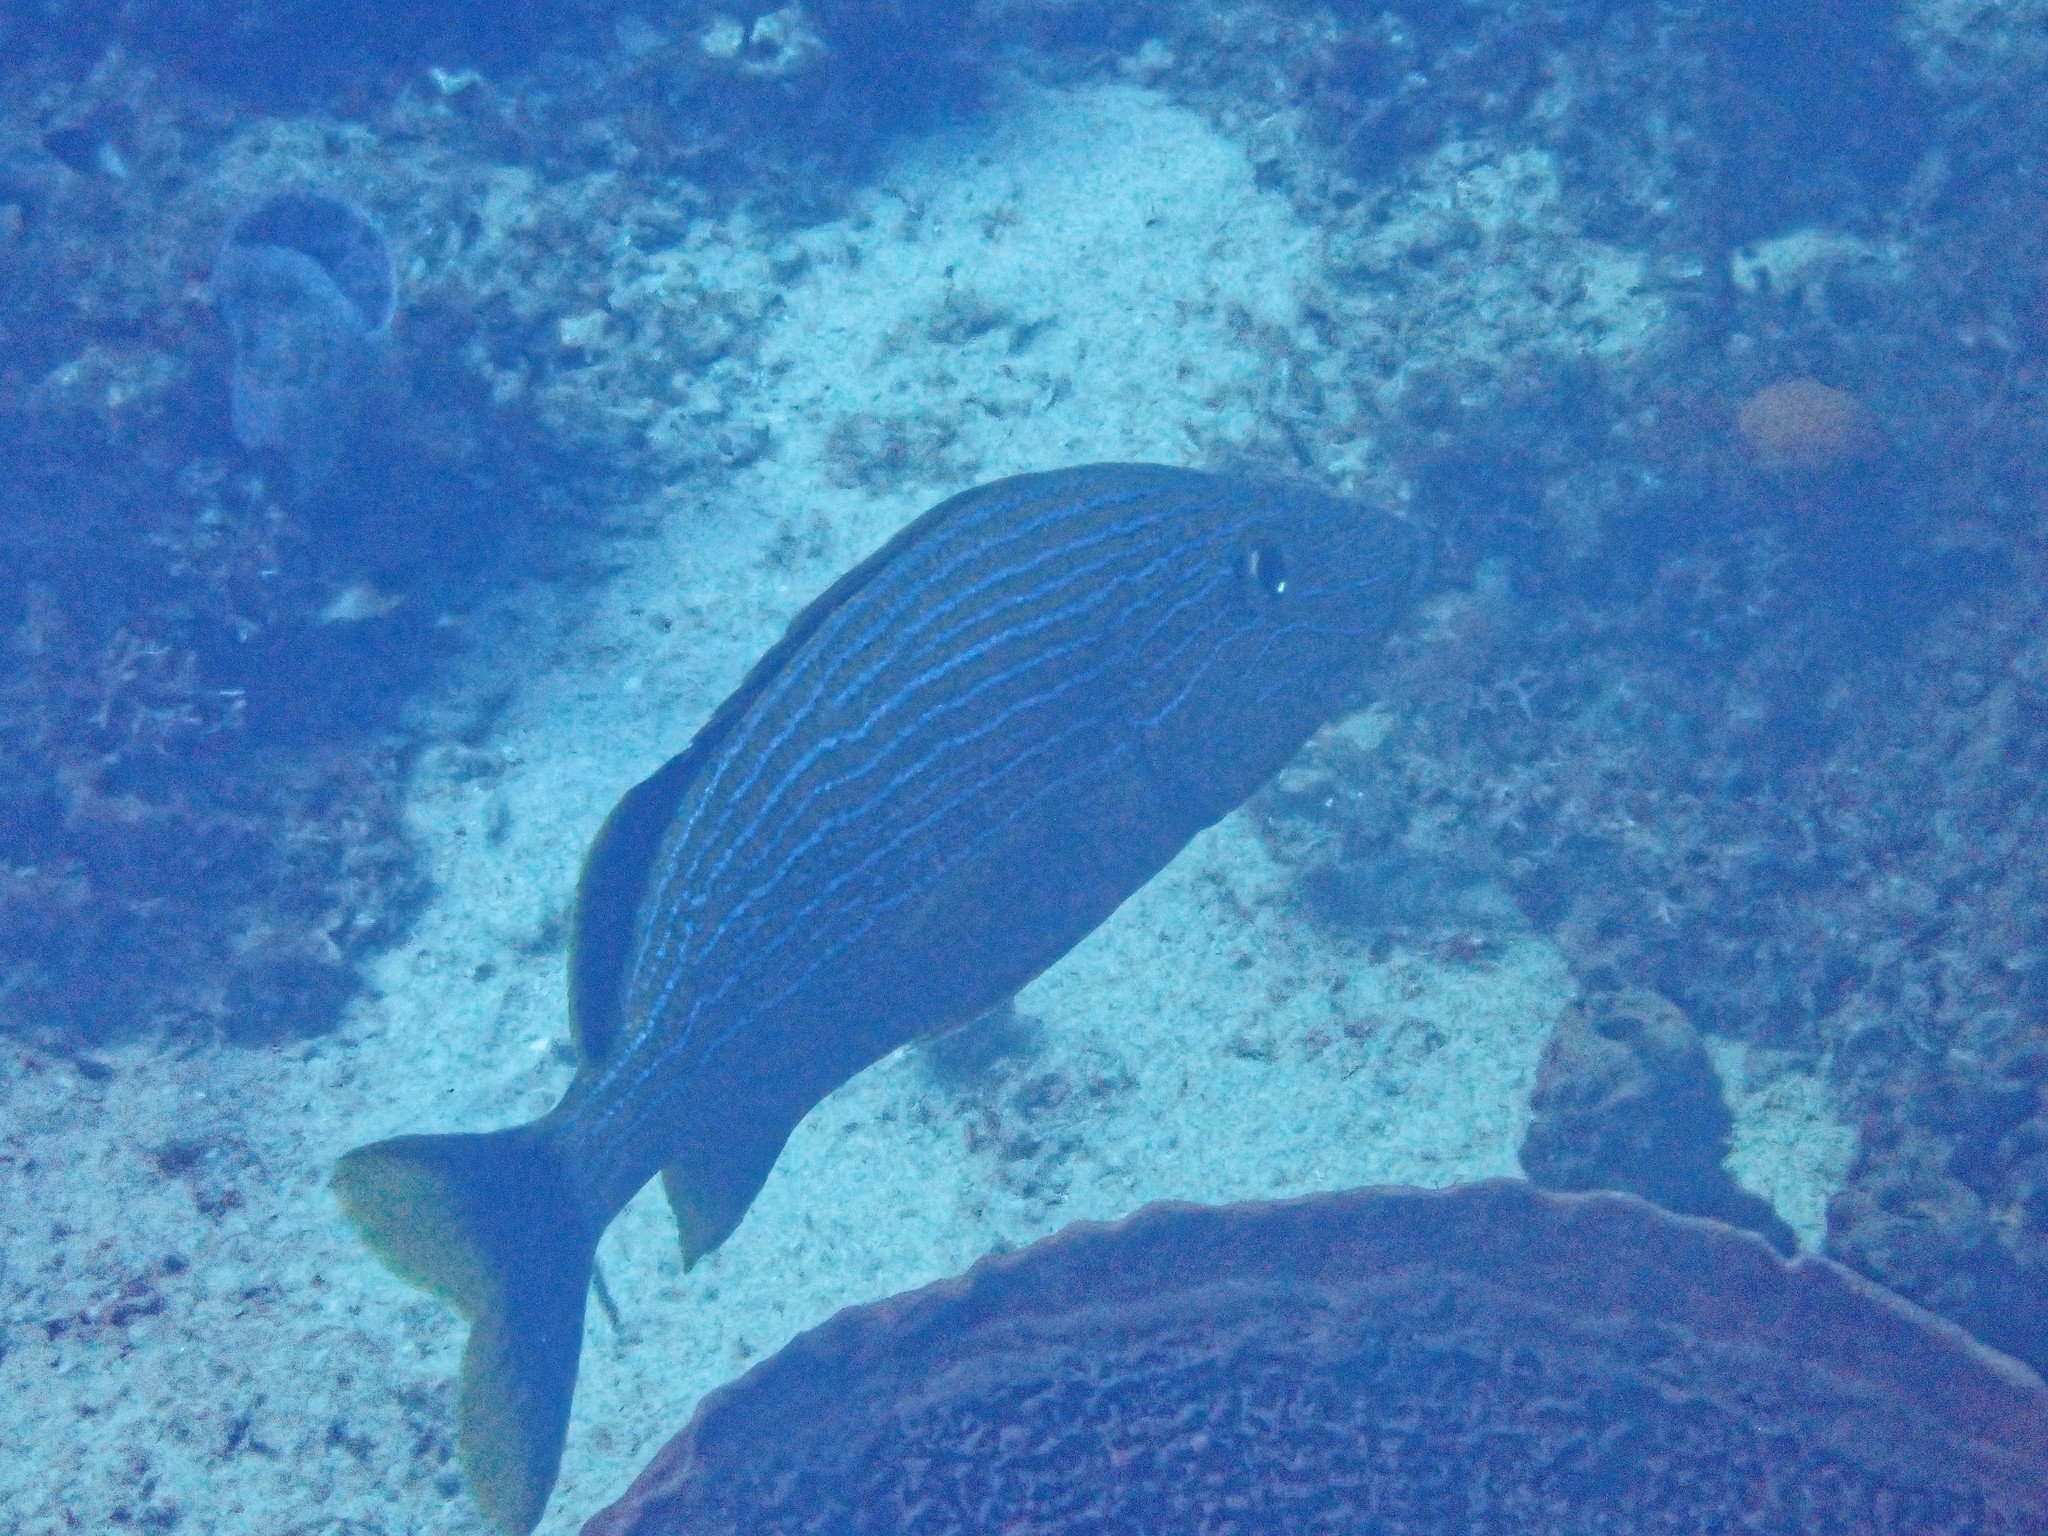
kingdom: Animalia
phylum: Chordata
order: Perciformes
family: Haemulidae
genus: Haemulon
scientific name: Haemulon sciurus
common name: Bluestriped grunt
